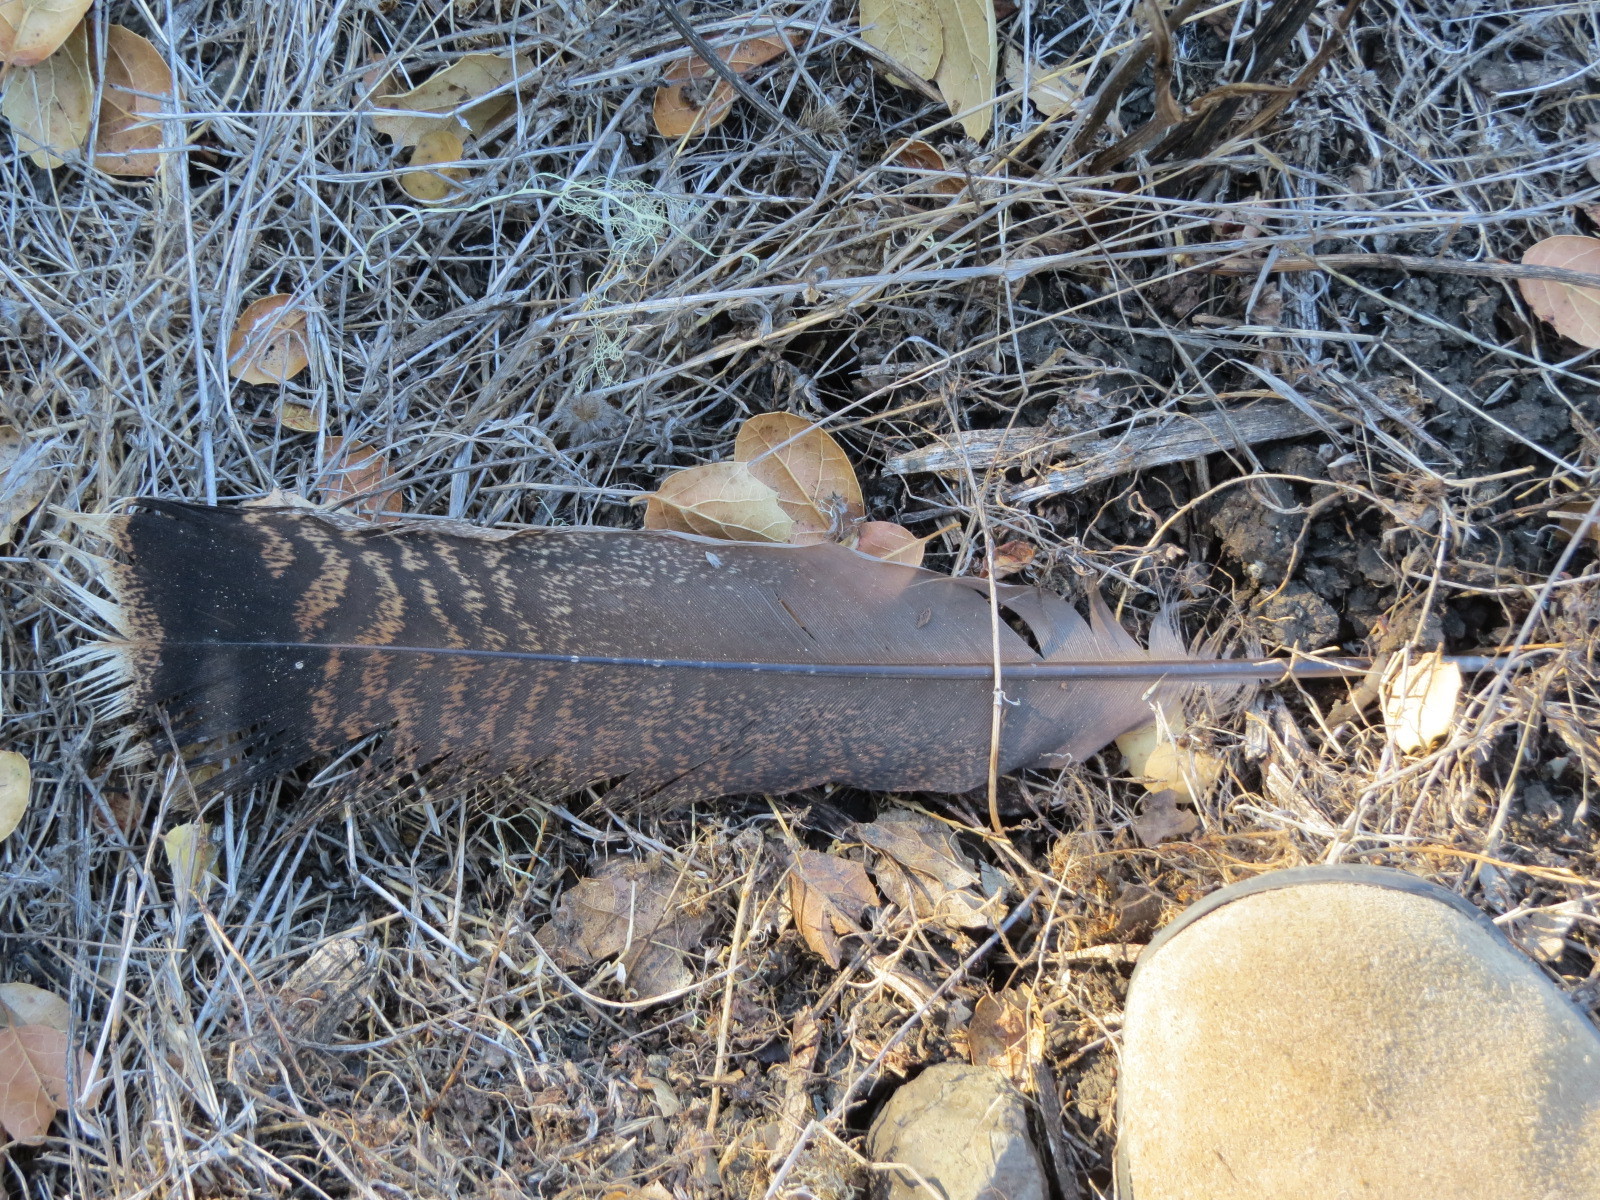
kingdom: Animalia
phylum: Chordata
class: Aves
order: Galliformes
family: Phasianidae
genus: Meleagris
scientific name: Meleagris gallopavo
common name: Wild turkey
